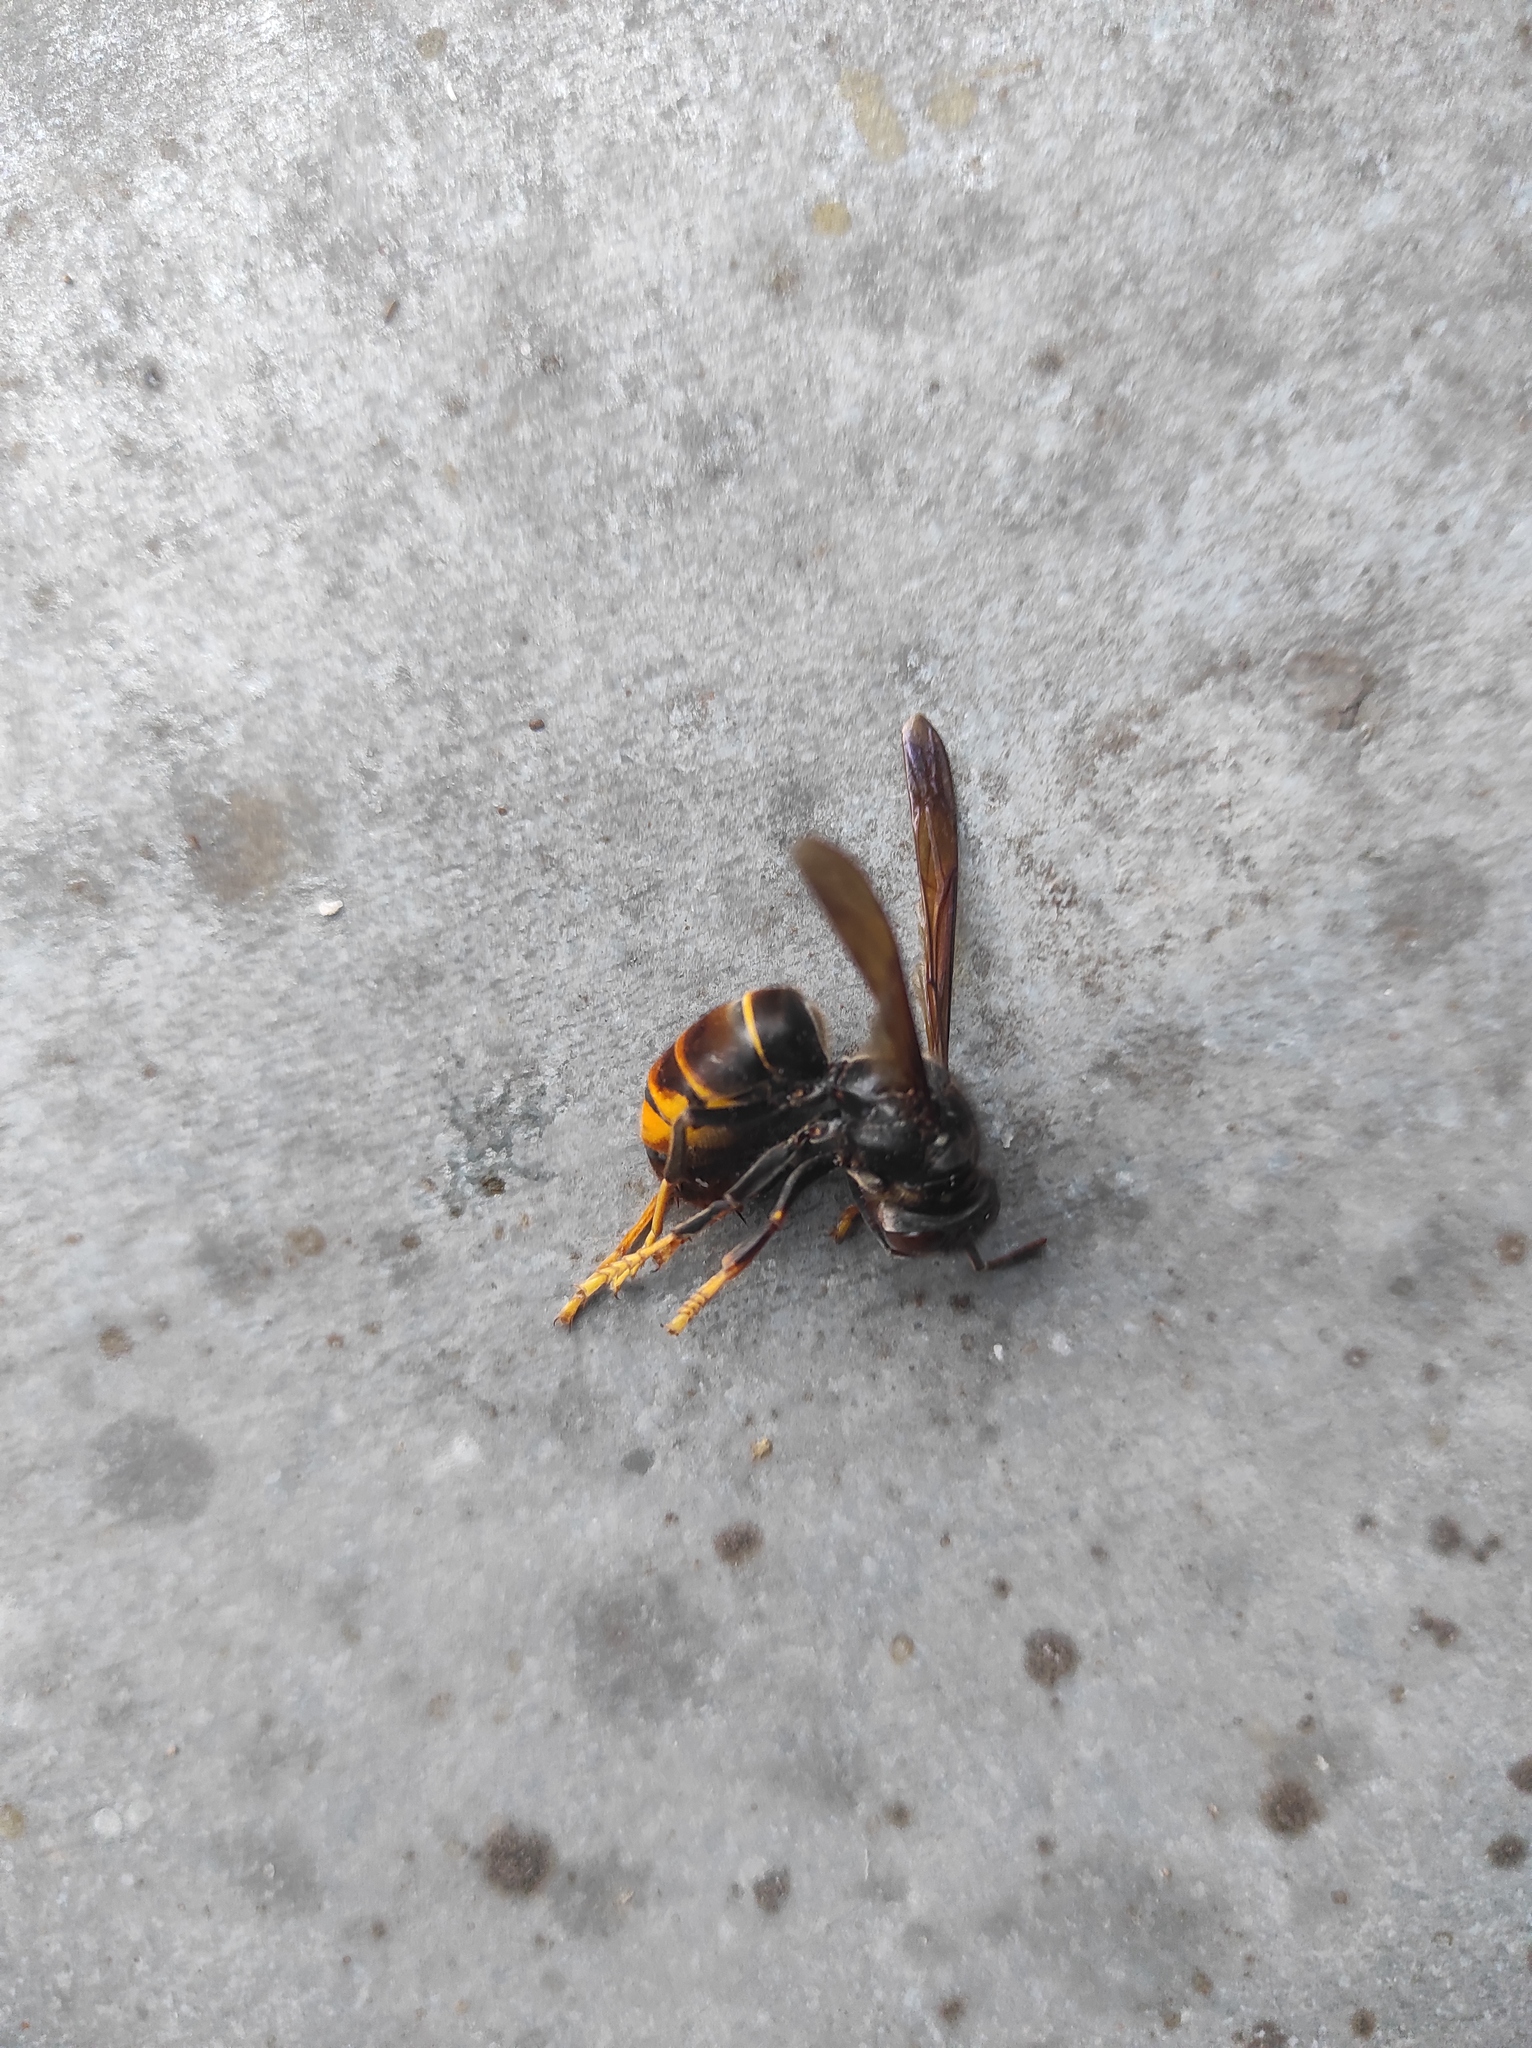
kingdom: Animalia
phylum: Arthropoda
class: Insecta
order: Hymenoptera
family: Vespidae
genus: Vespa
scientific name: Vespa velutina
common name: Asian hornet
